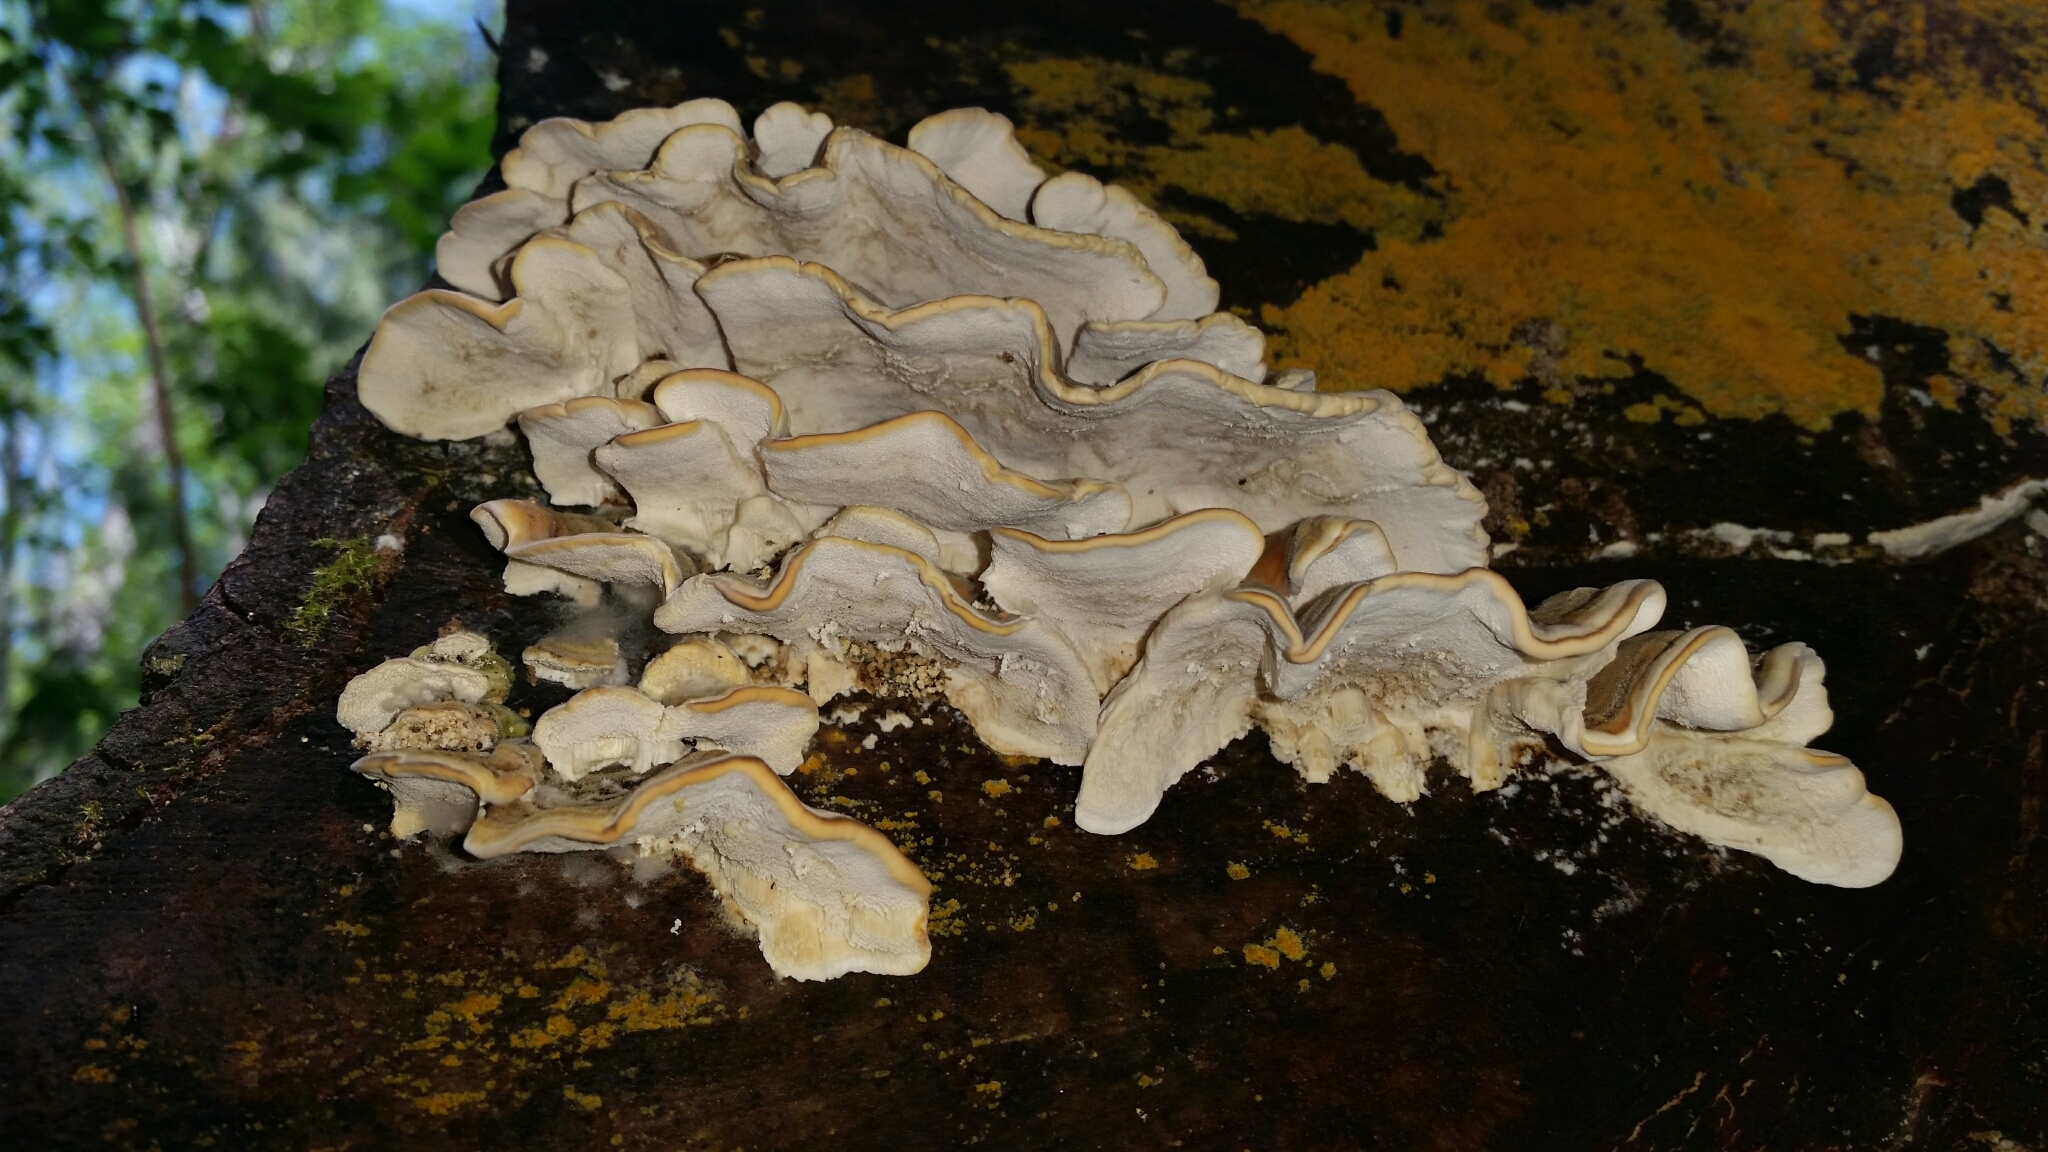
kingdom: Fungi
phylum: Basidiomycota
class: Agaricomycetes
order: Polyporales
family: Polyporaceae
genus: Trametes
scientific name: Trametes versicolor
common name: Turkeytail
